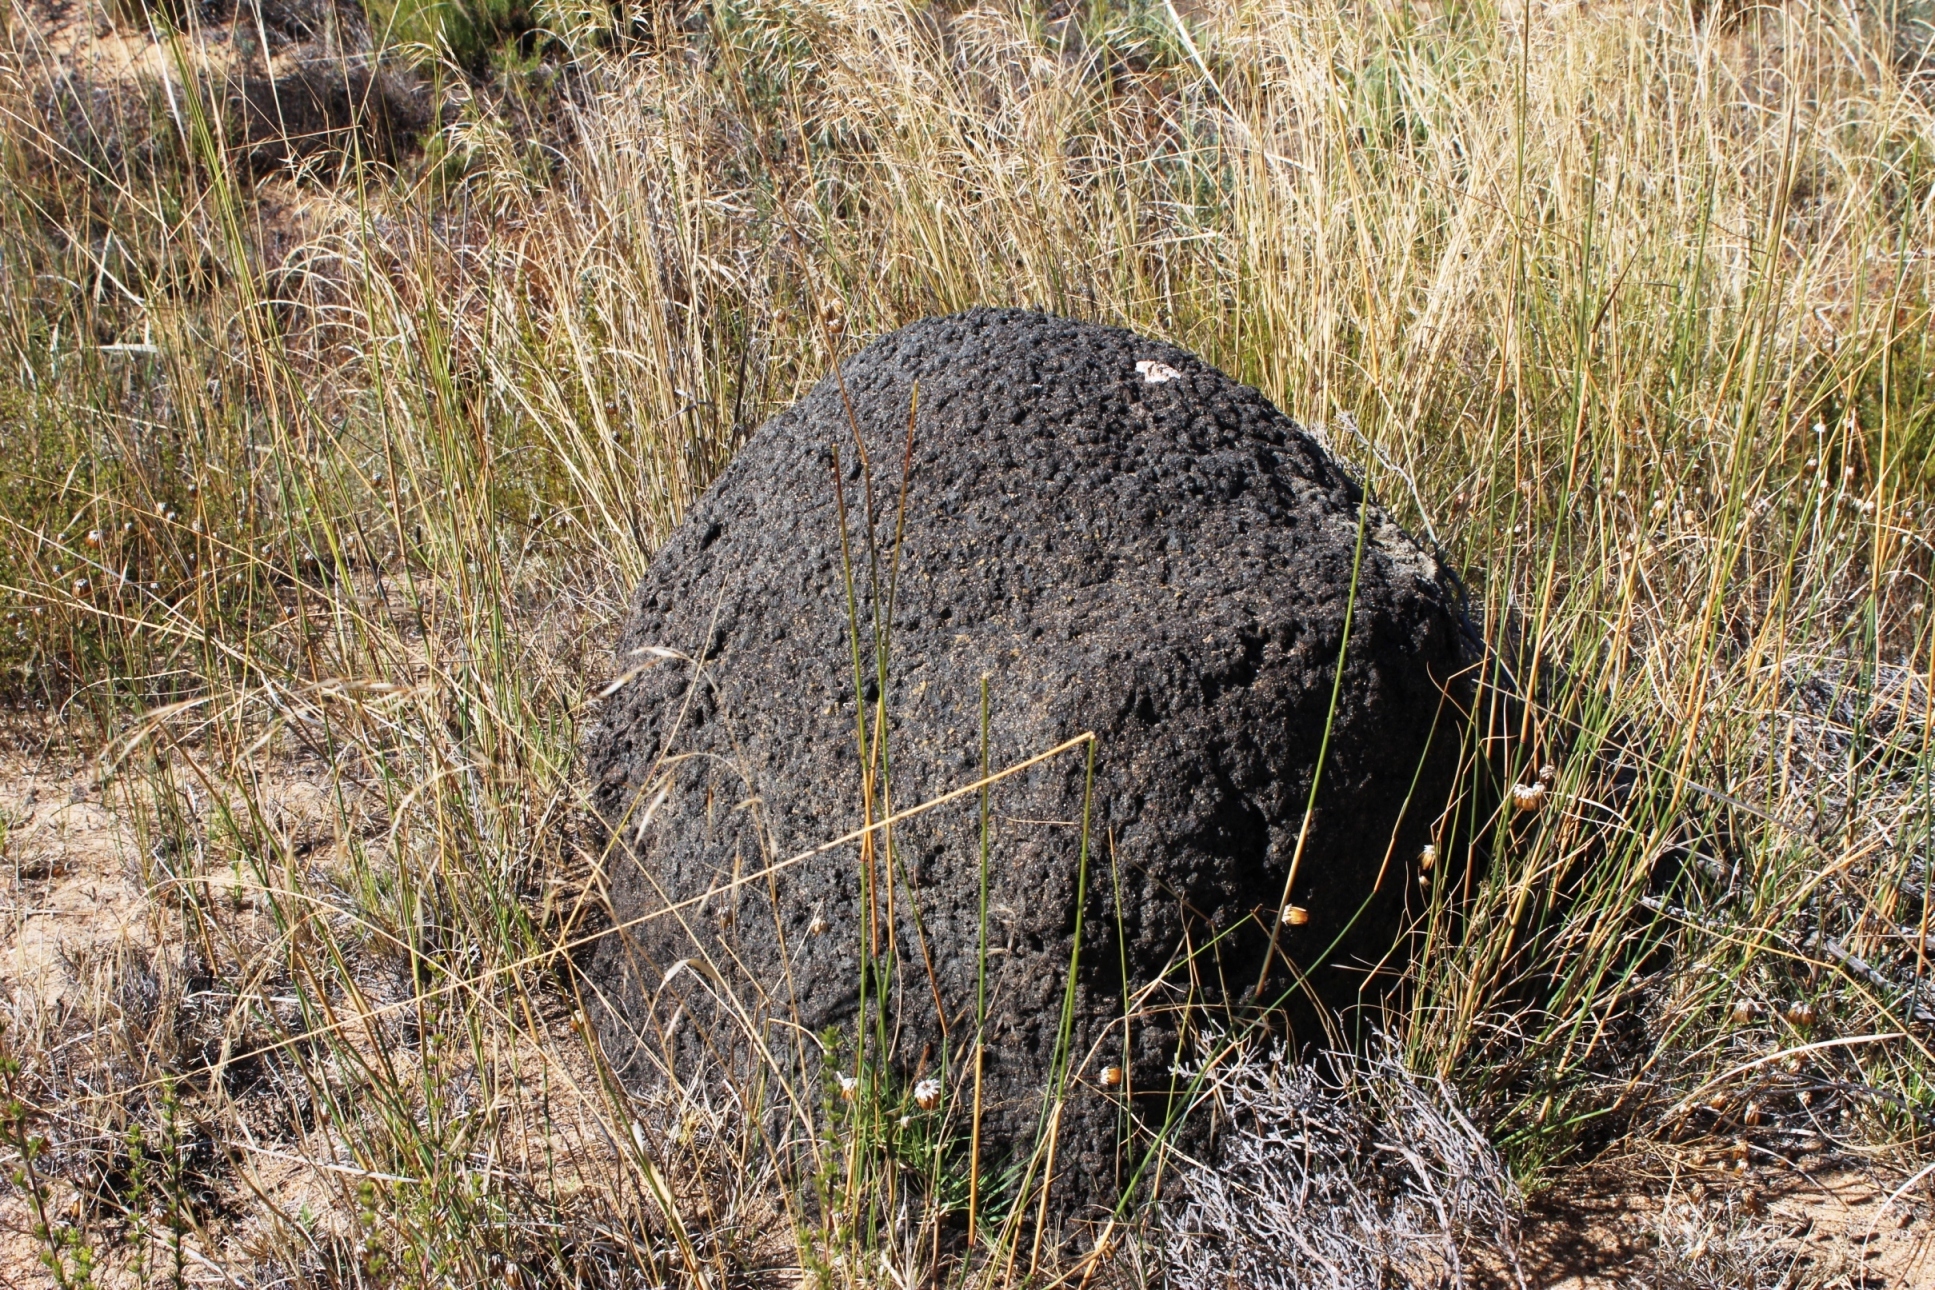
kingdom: Animalia
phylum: Arthropoda
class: Insecta
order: Blattodea
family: Termitidae
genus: Amitermes
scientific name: Amitermes hastatus
